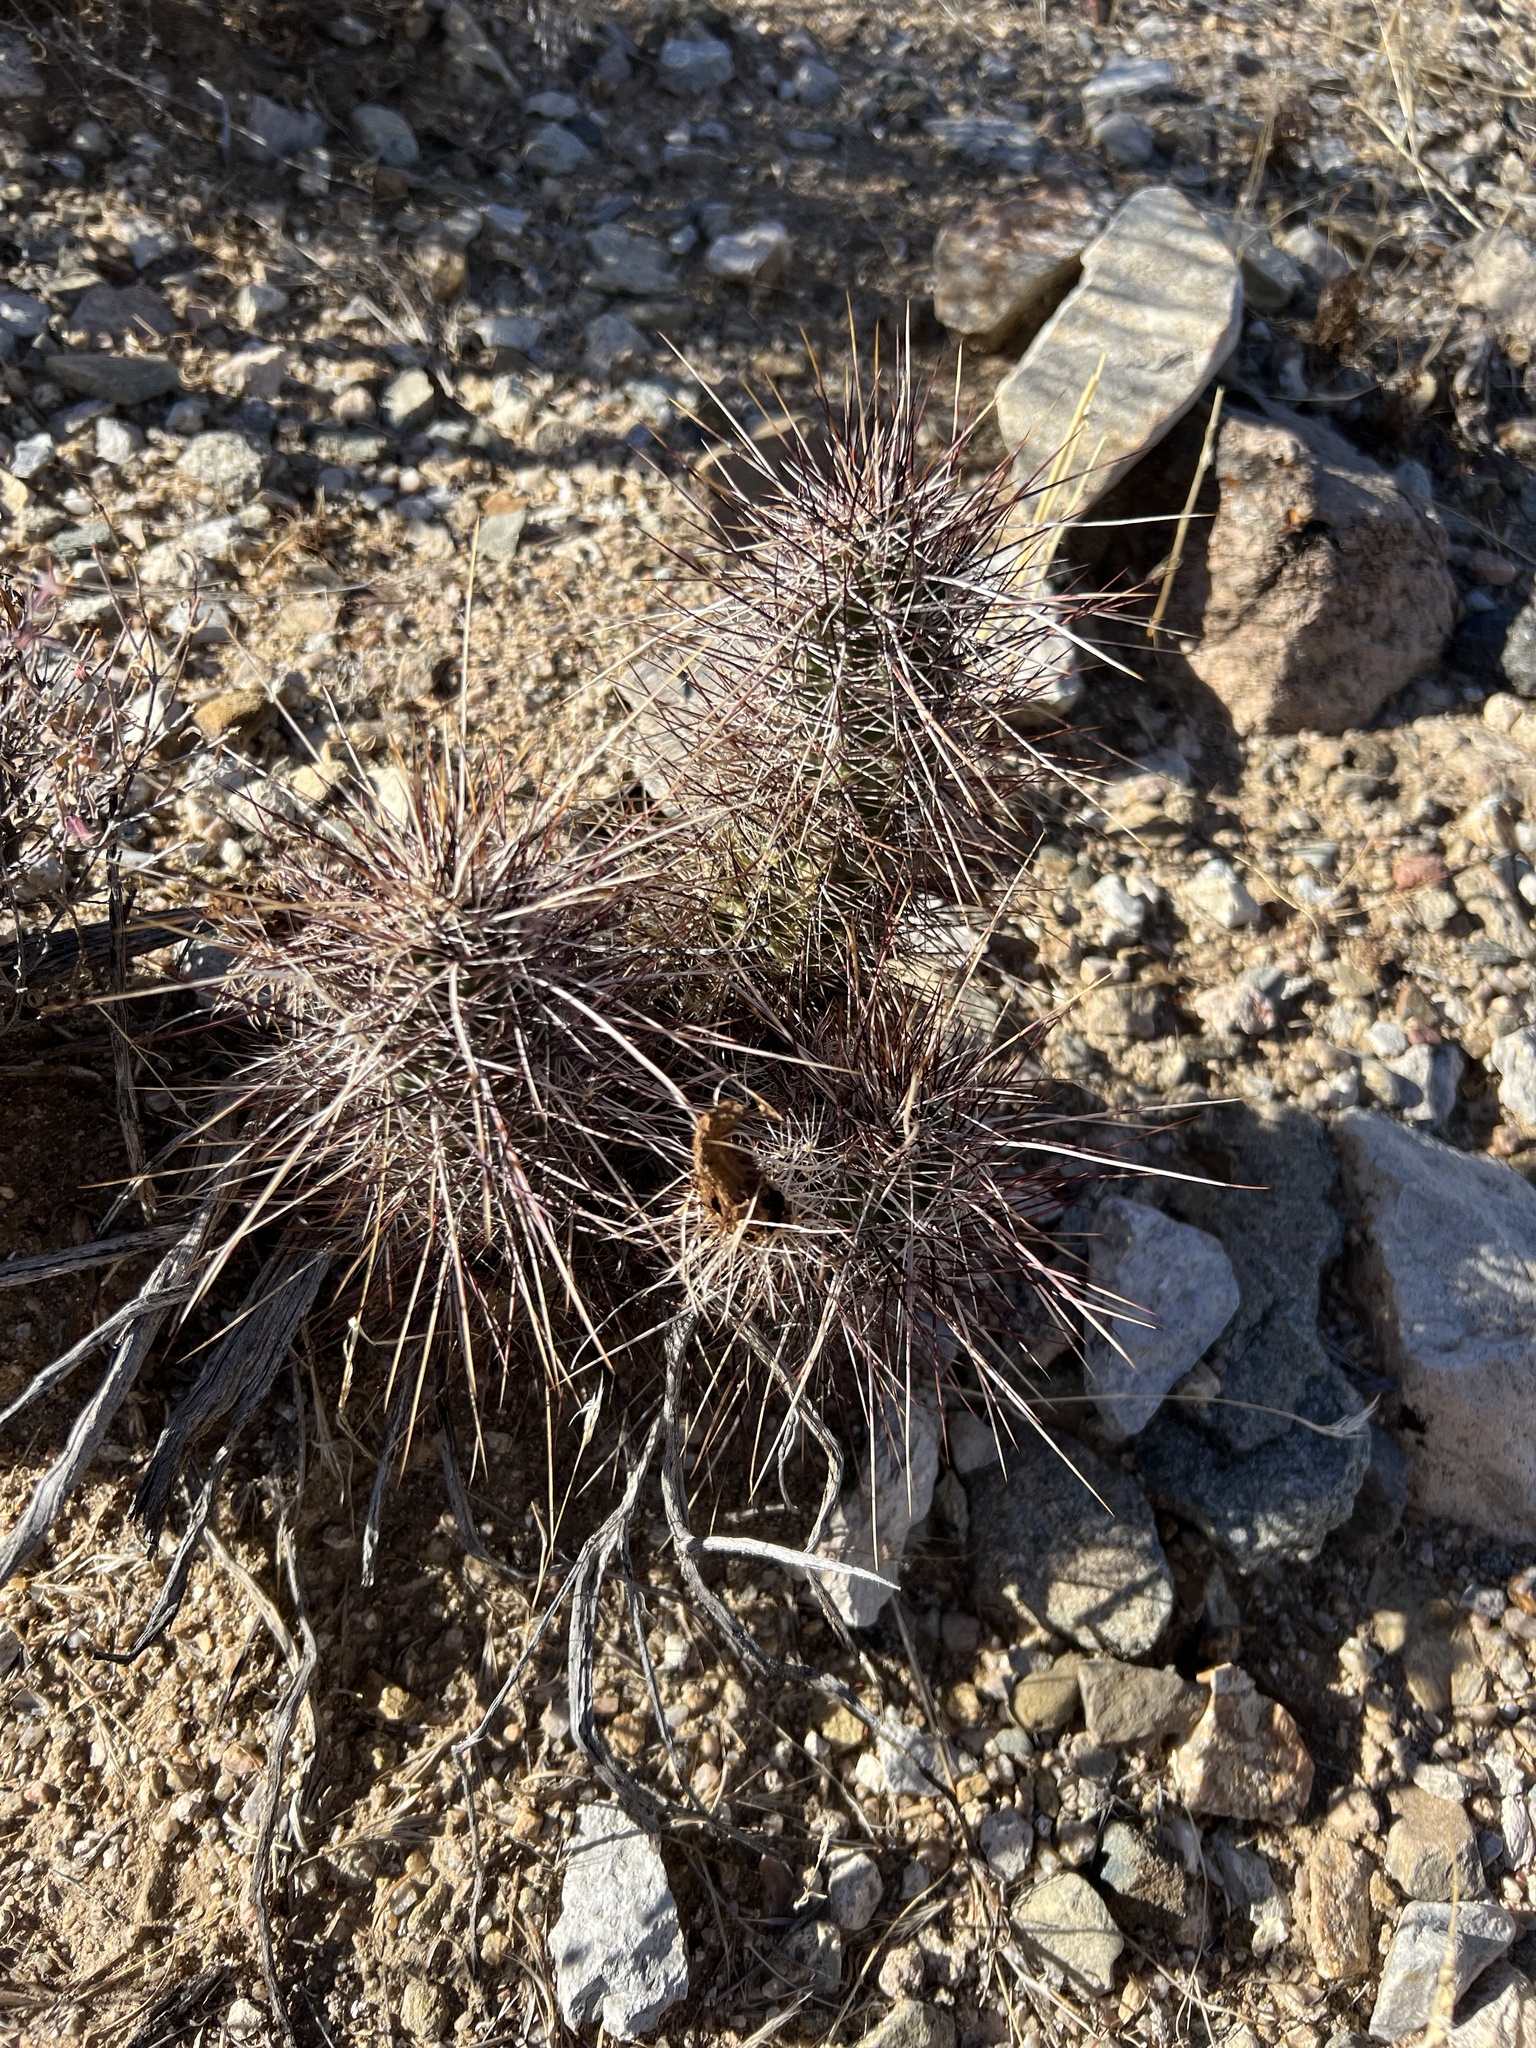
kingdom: Plantae
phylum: Tracheophyta
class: Magnoliopsida
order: Caryophyllales
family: Cactaceae
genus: Echinocereus
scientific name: Echinocereus engelmannii
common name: Engelmann's hedgehog cactus
